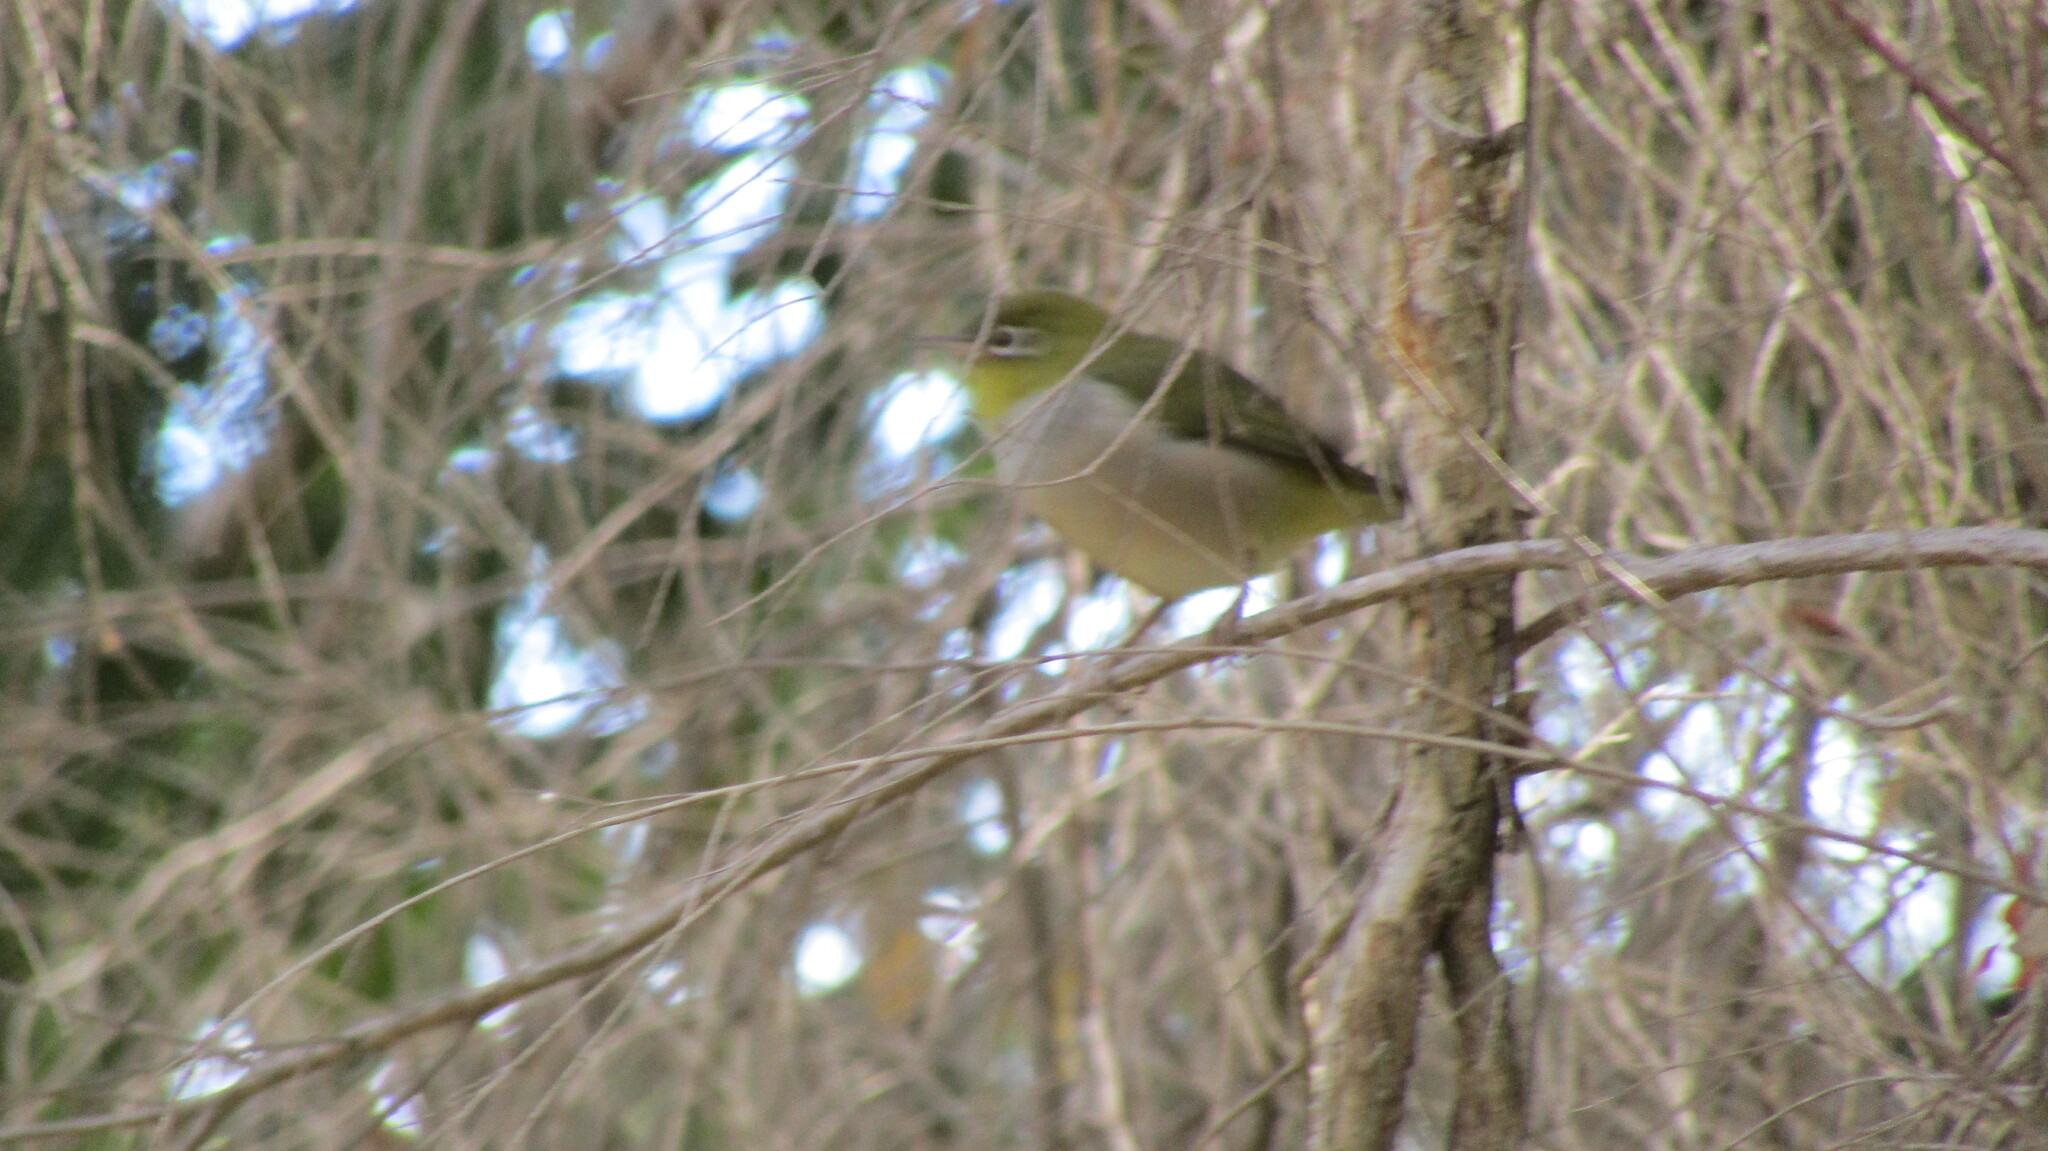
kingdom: Animalia
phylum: Chordata
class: Aves
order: Passeriformes
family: Zosteropidae
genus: Zosterops
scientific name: Zosterops lateralis
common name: Silvereye
